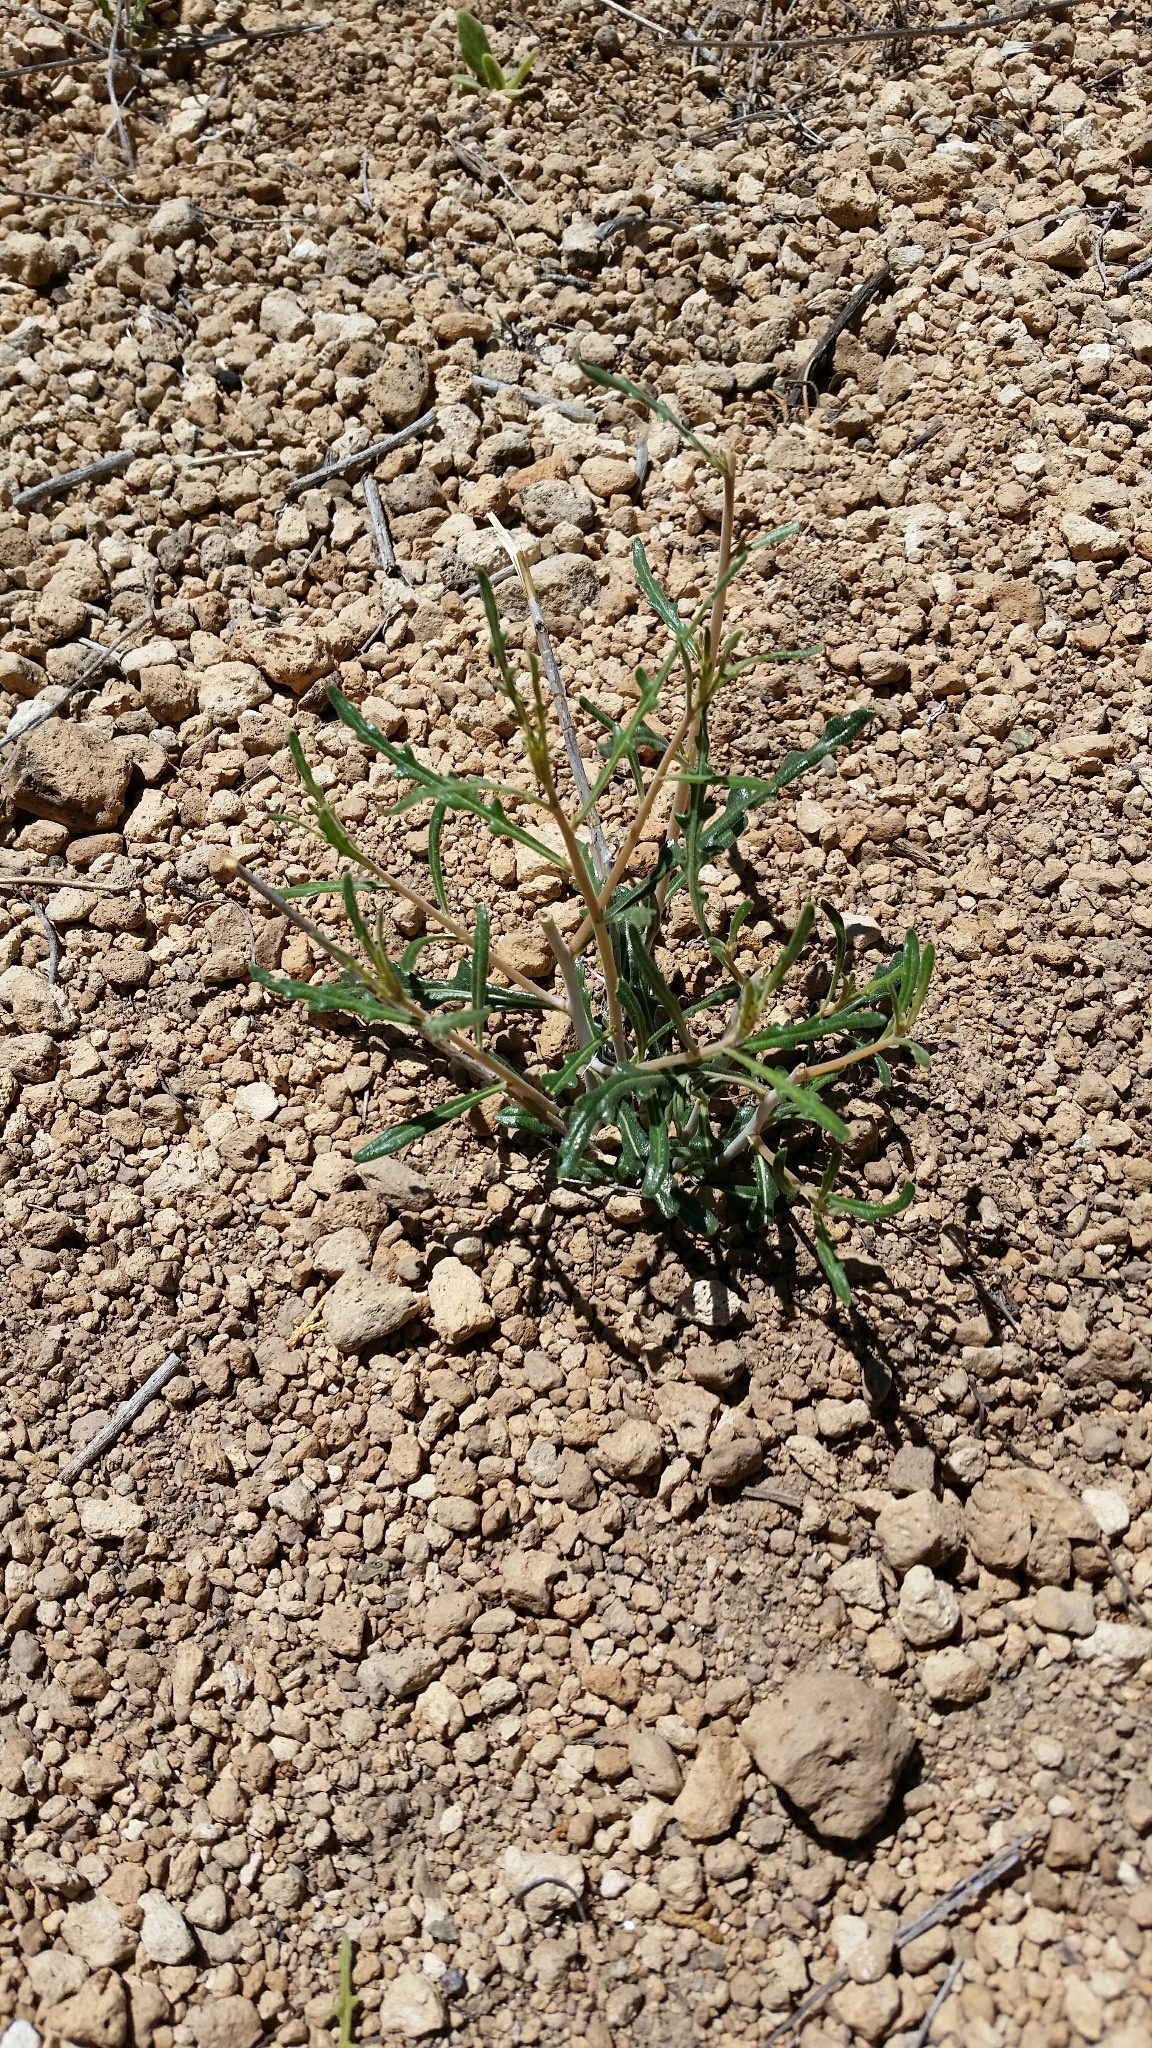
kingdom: Plantae
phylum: Tracheophyta
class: Magnoliopsida
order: Cornales
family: Loasaceae
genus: Mentzelia
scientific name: Mentzelia springeri
